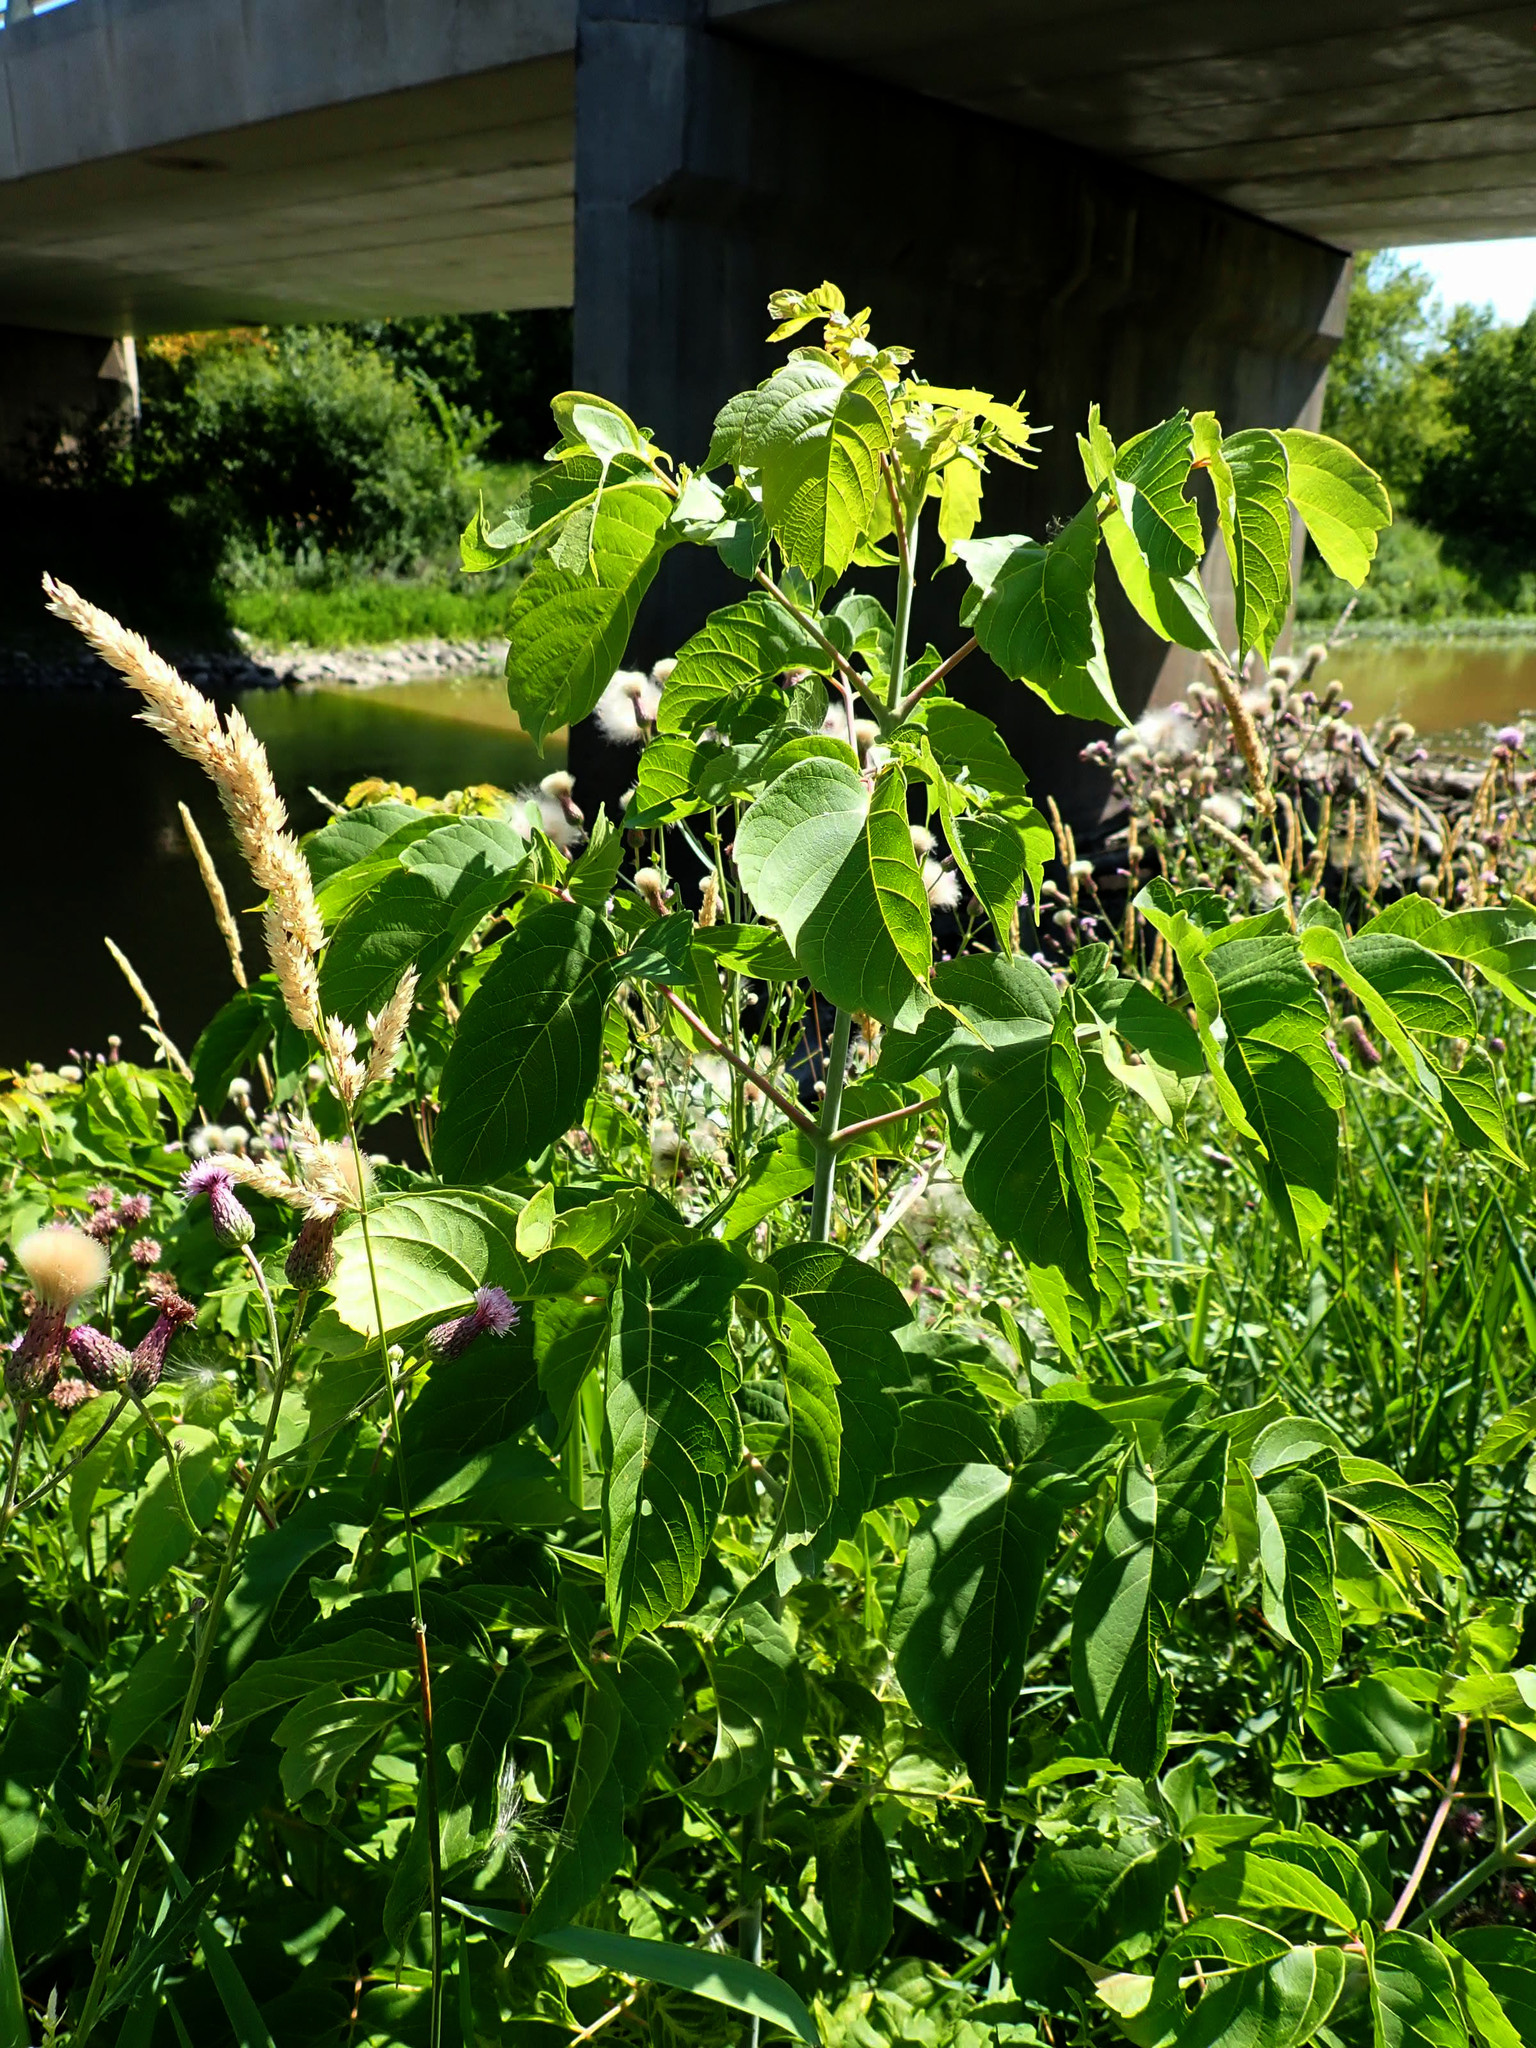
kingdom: Plantae
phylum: Tracheophyta
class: Magnoliopsida
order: Sapindales
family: Sapindaceae
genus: Acer
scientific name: Acer negundo
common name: Ashleaf maple
